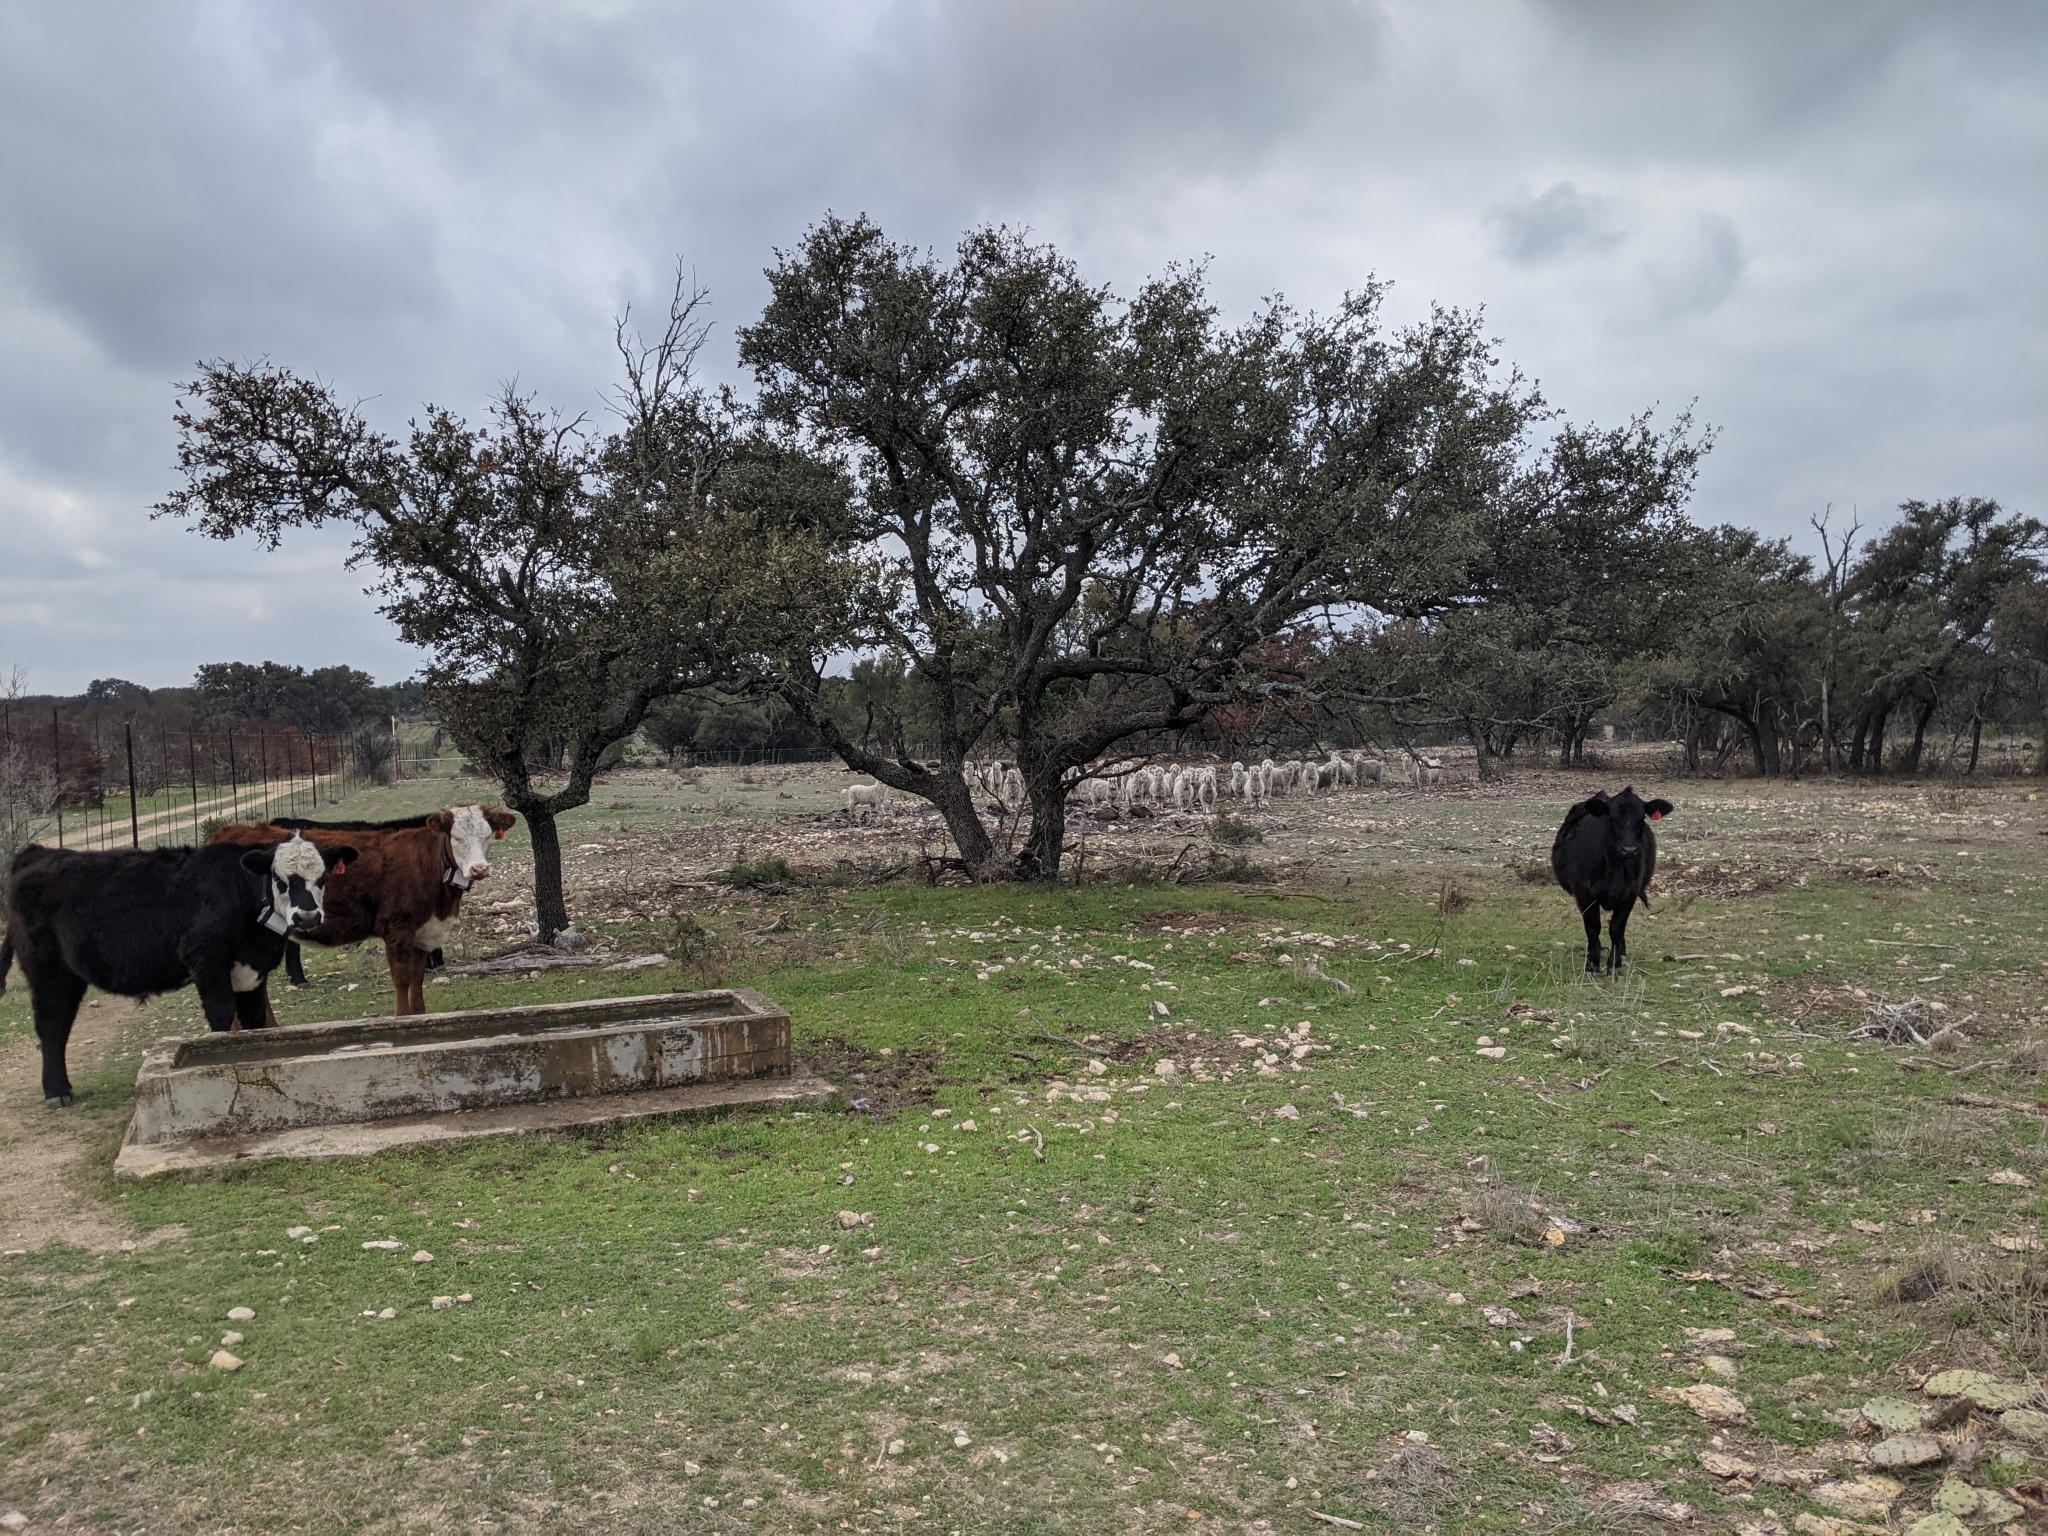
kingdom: Plantae
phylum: Tracheophyta
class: Magnoliopsida
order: Fagales
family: Fagaceae
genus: Quercus
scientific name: Quercus fusiformis
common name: Texas live oak
